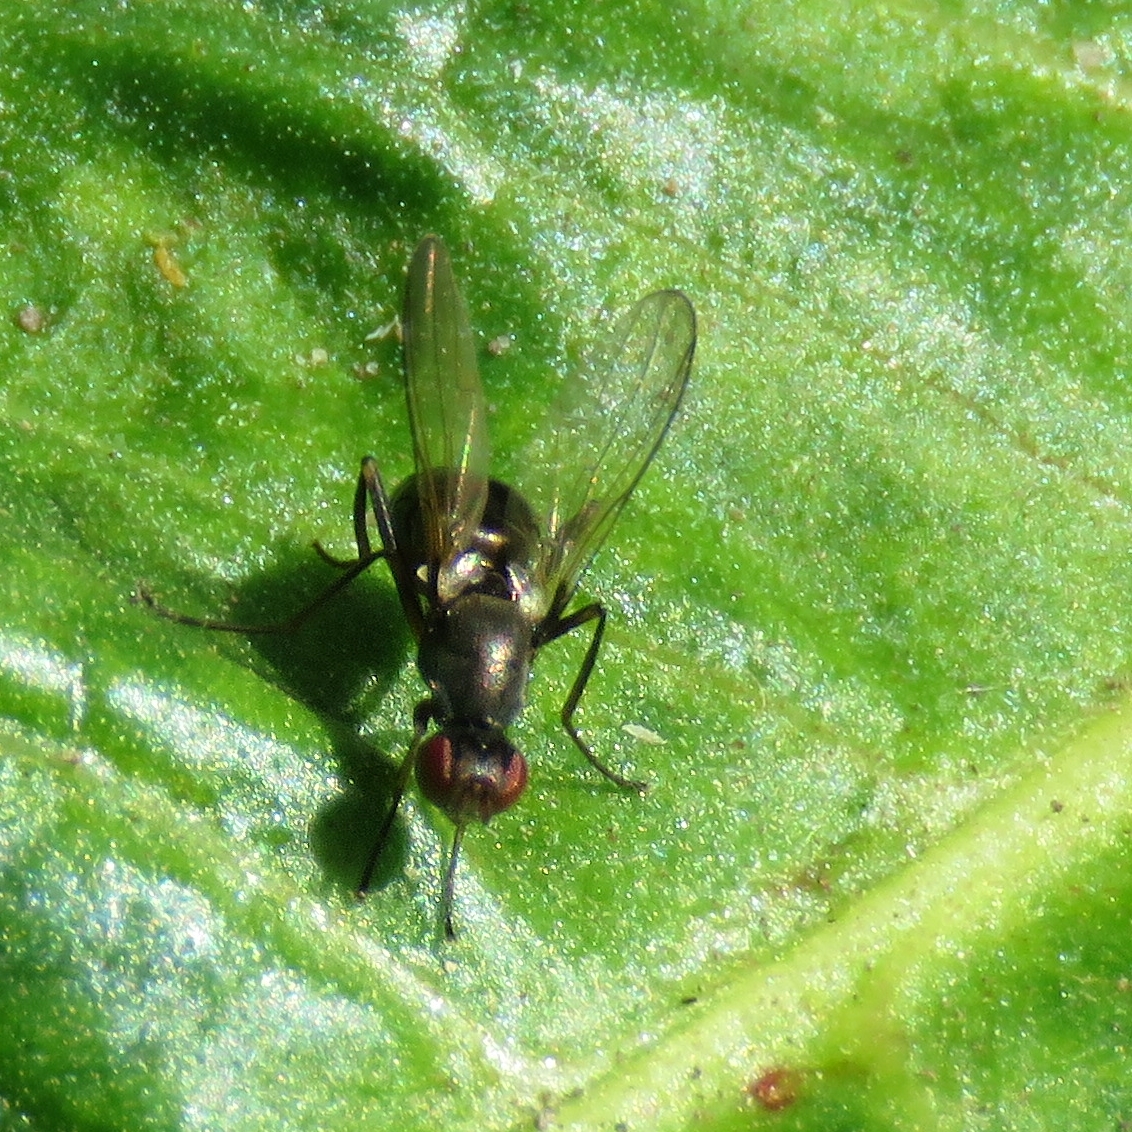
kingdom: Animalia
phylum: Arthropoda
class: Insecta
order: Diptera
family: Sepsidae
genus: Nemopoda
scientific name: Nemopoda nitidula
